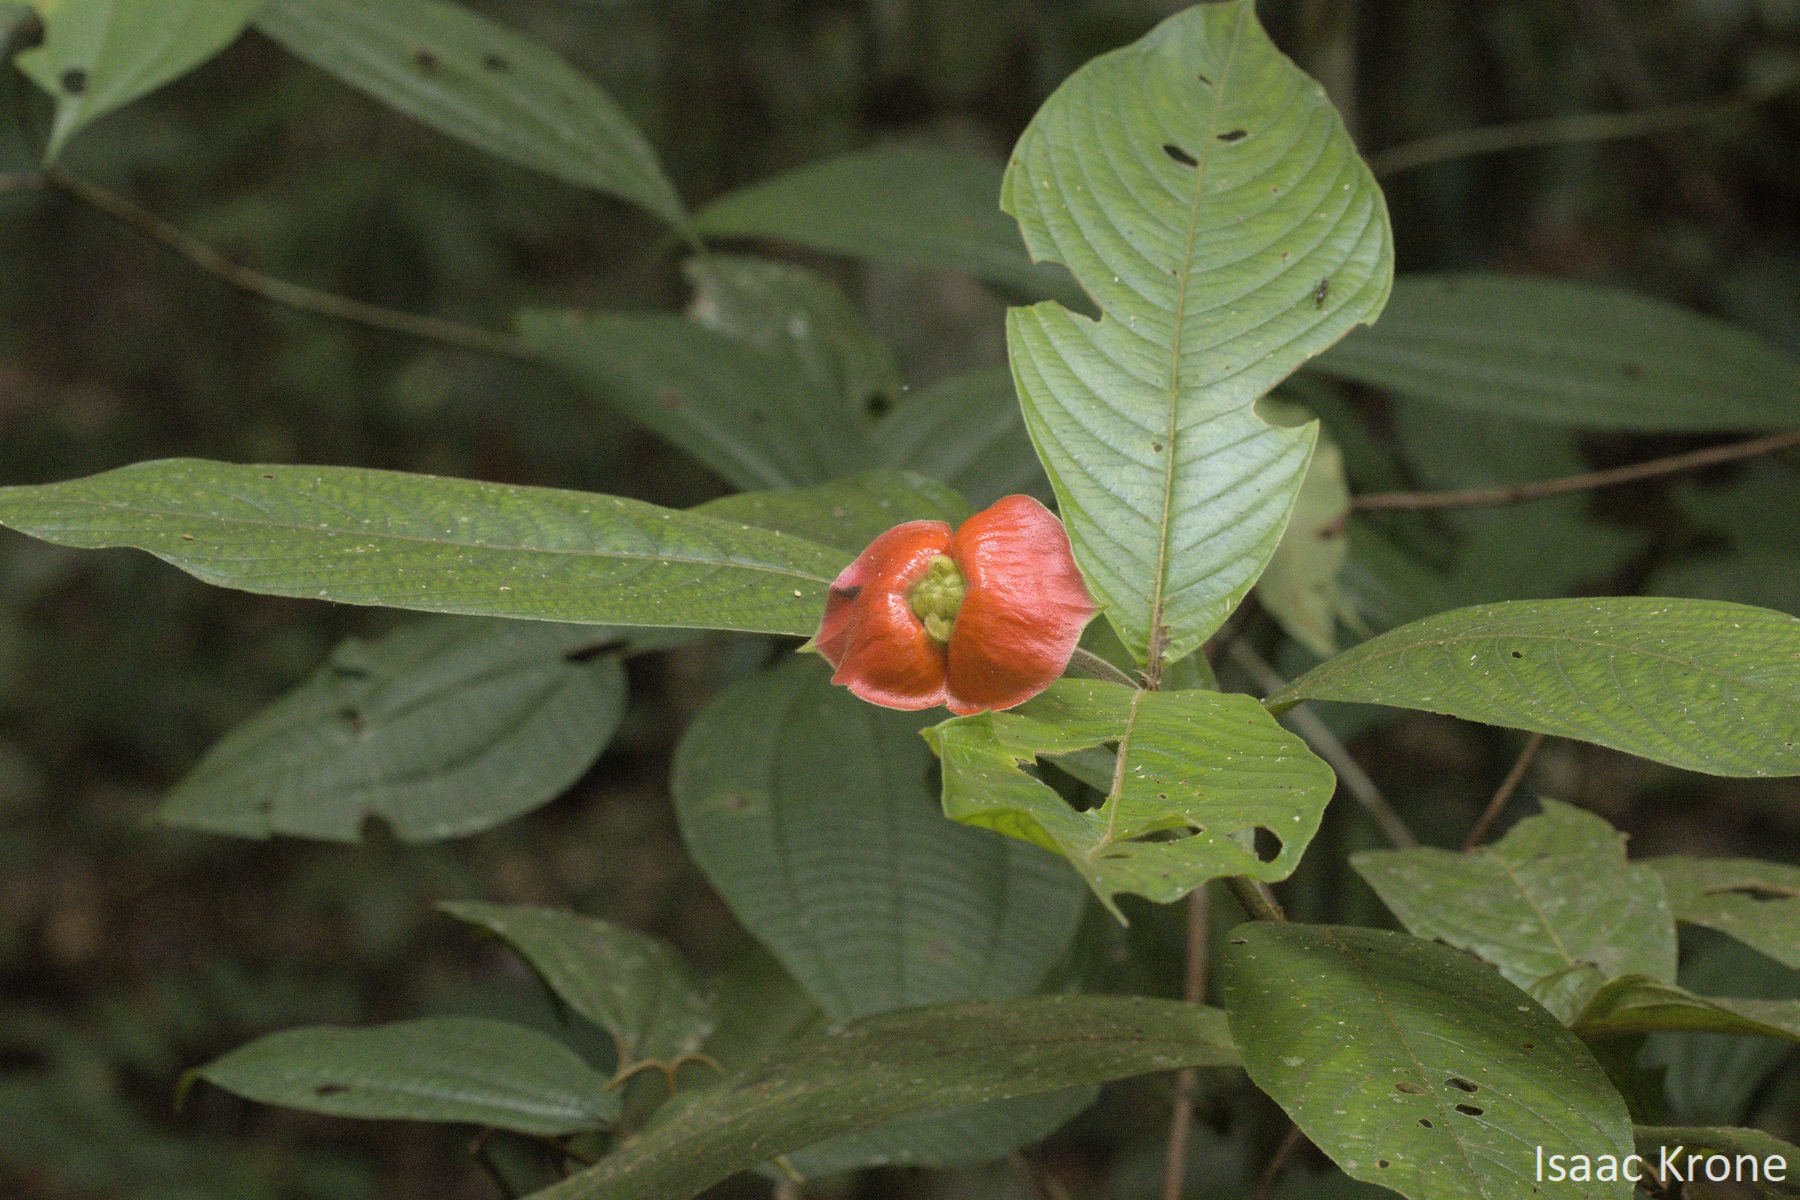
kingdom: Plantae
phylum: Tracheophyta
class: Magnoliopsida
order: Gentianales
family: Rubiaceae
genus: Palicourea
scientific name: Palicourea tomentosa
